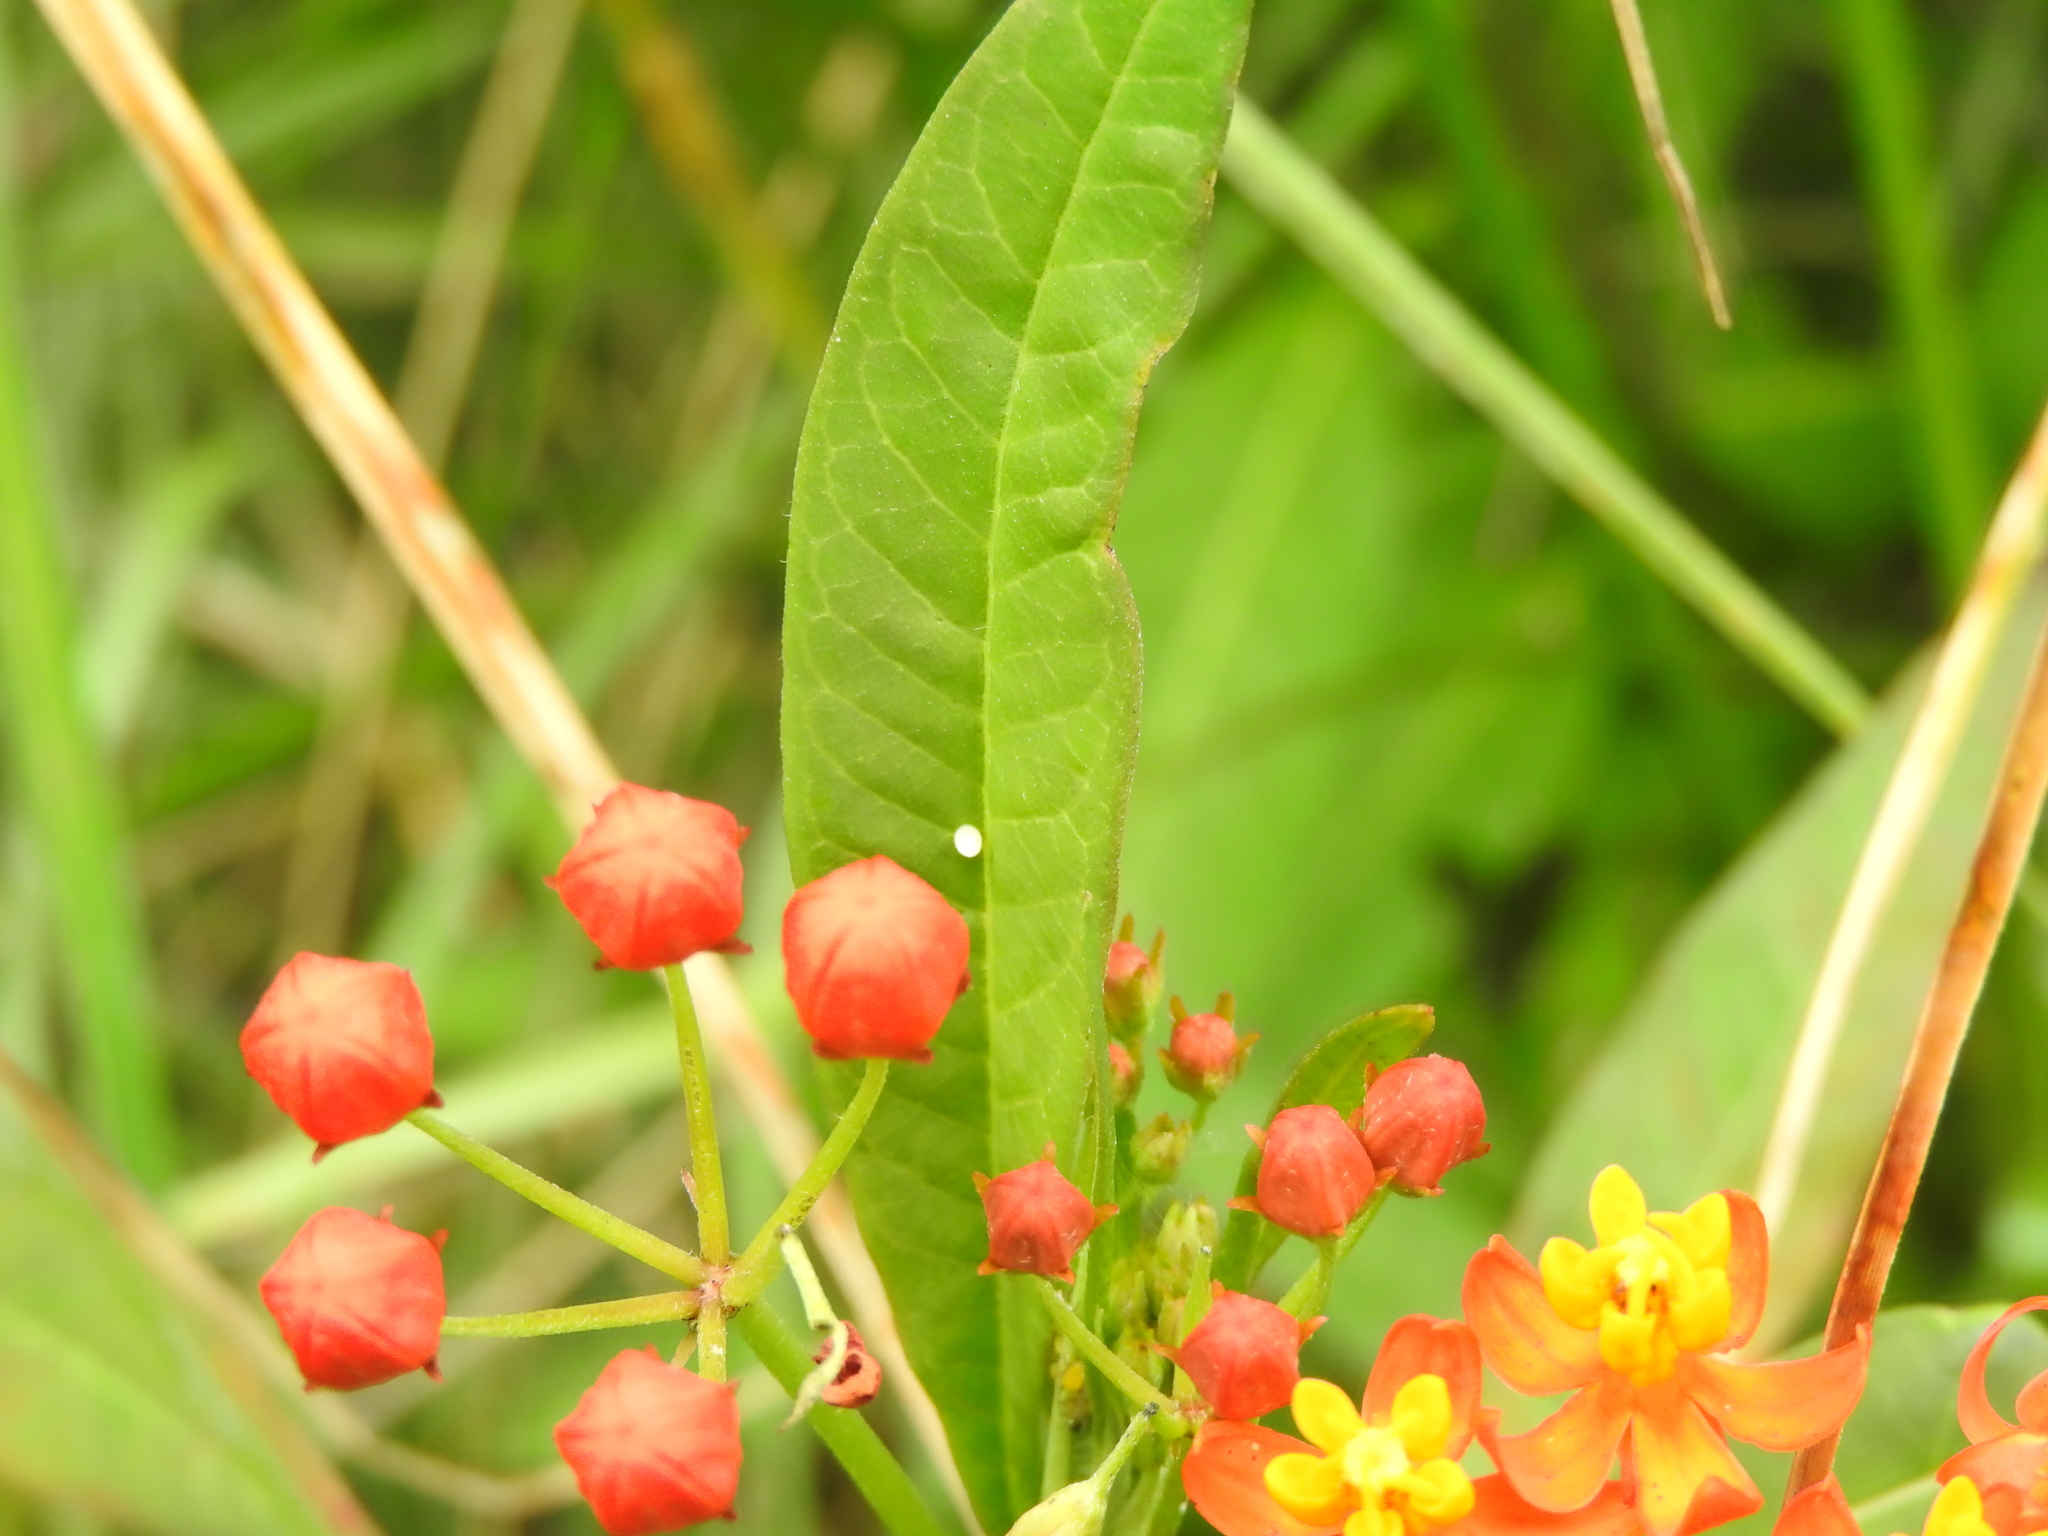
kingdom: Animalia
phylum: Arthropoda
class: Insecta
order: Lepidoptera
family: Nymphalidae
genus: Danaus
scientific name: Danaus plexippus
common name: Monarch
